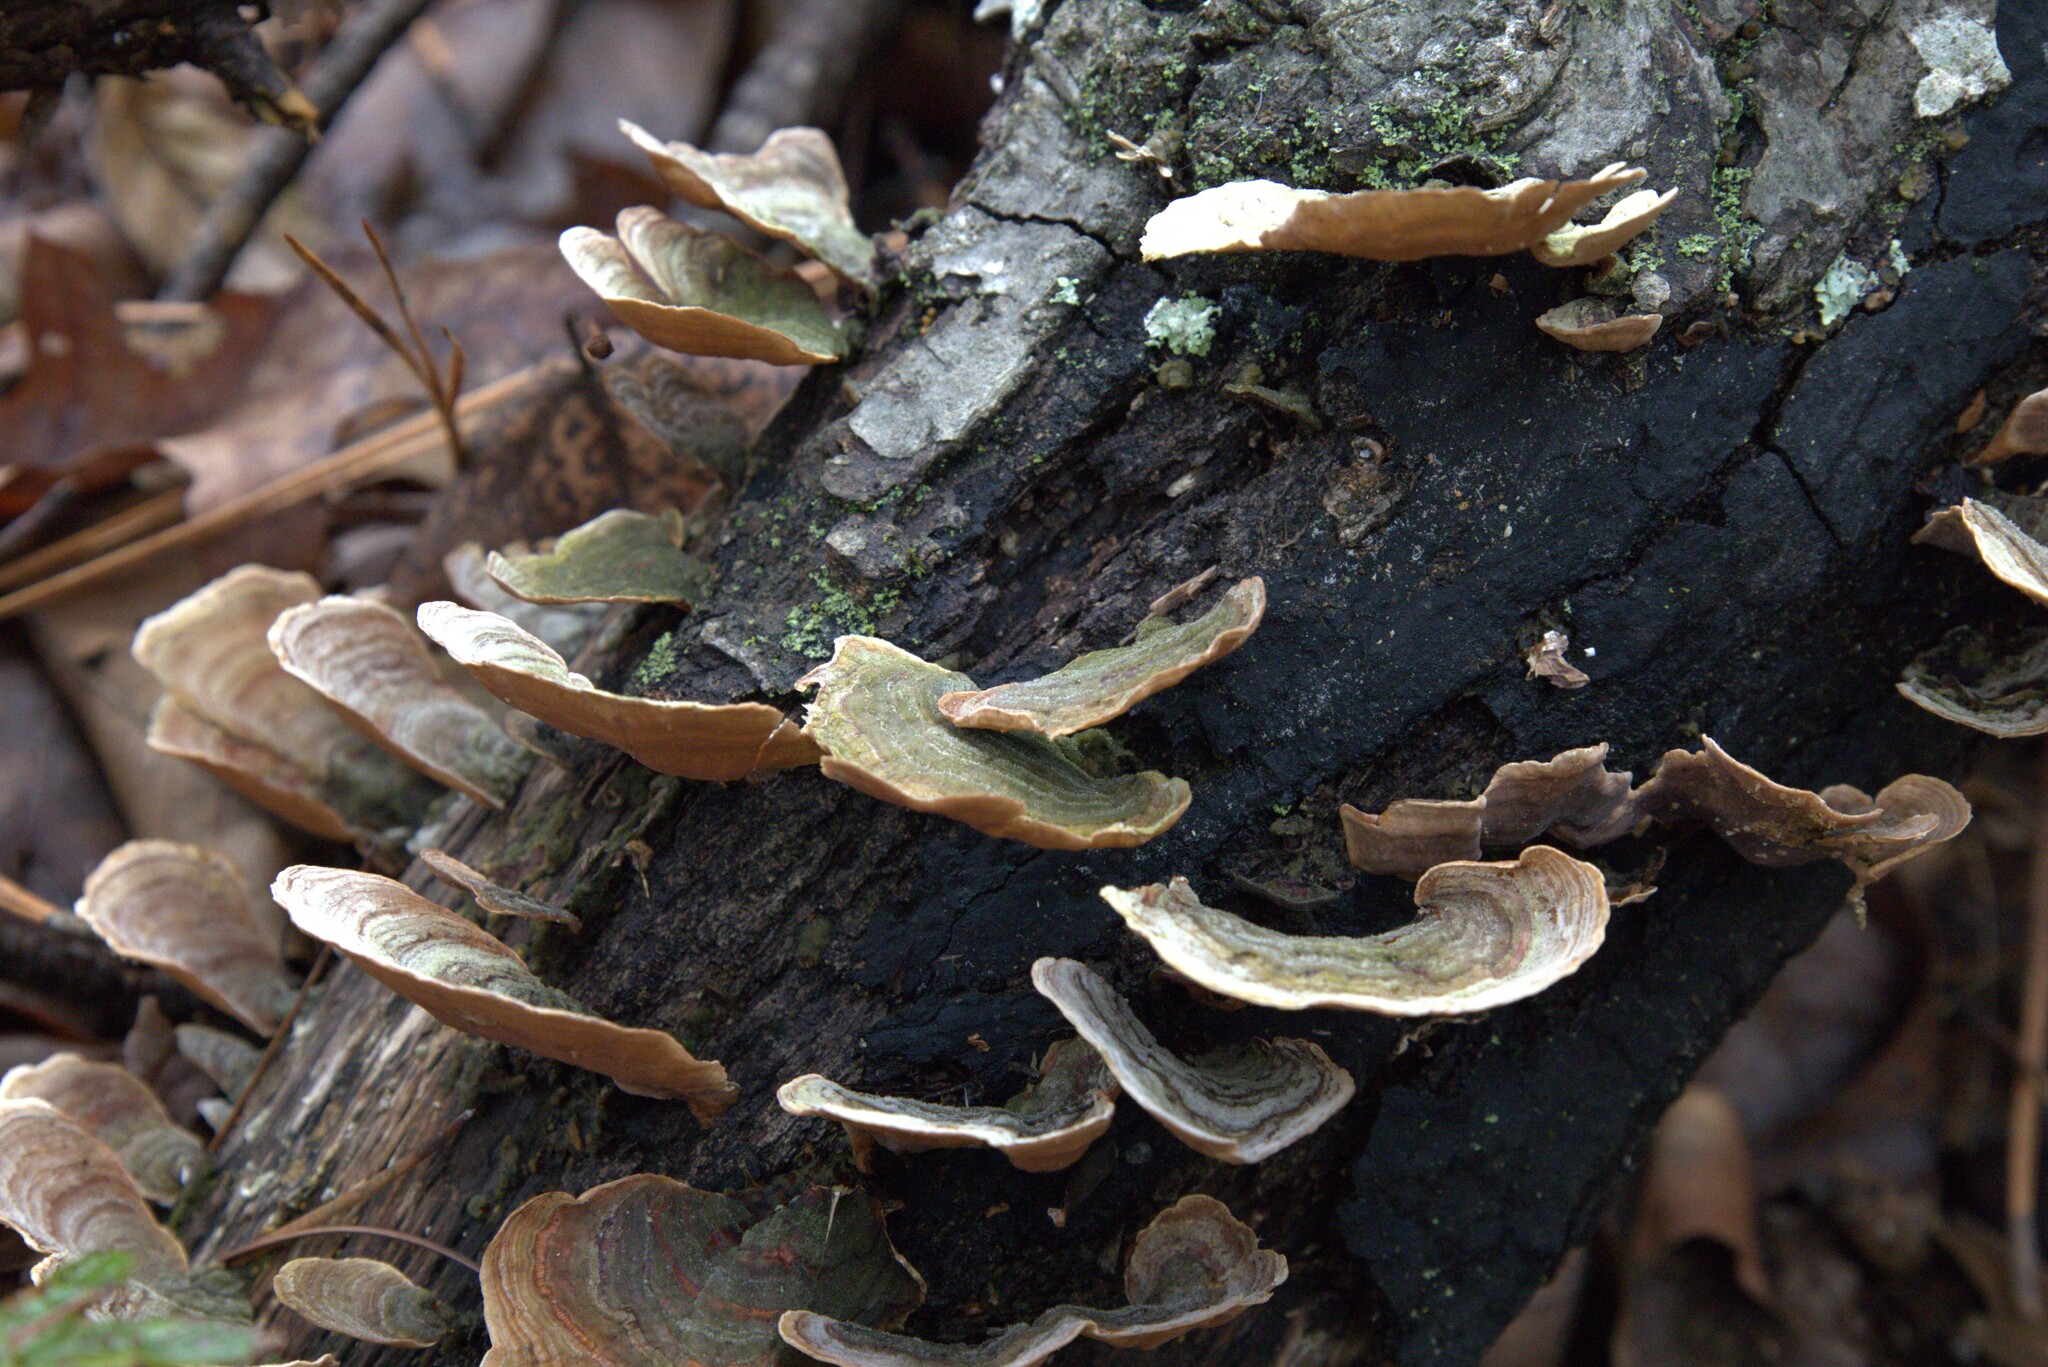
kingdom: Fungi
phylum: Basidiomycota
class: Agaricomycetes
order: Russulales
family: Stereaceae
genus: Stereum
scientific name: Stereum ostrea
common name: False turkeytail
